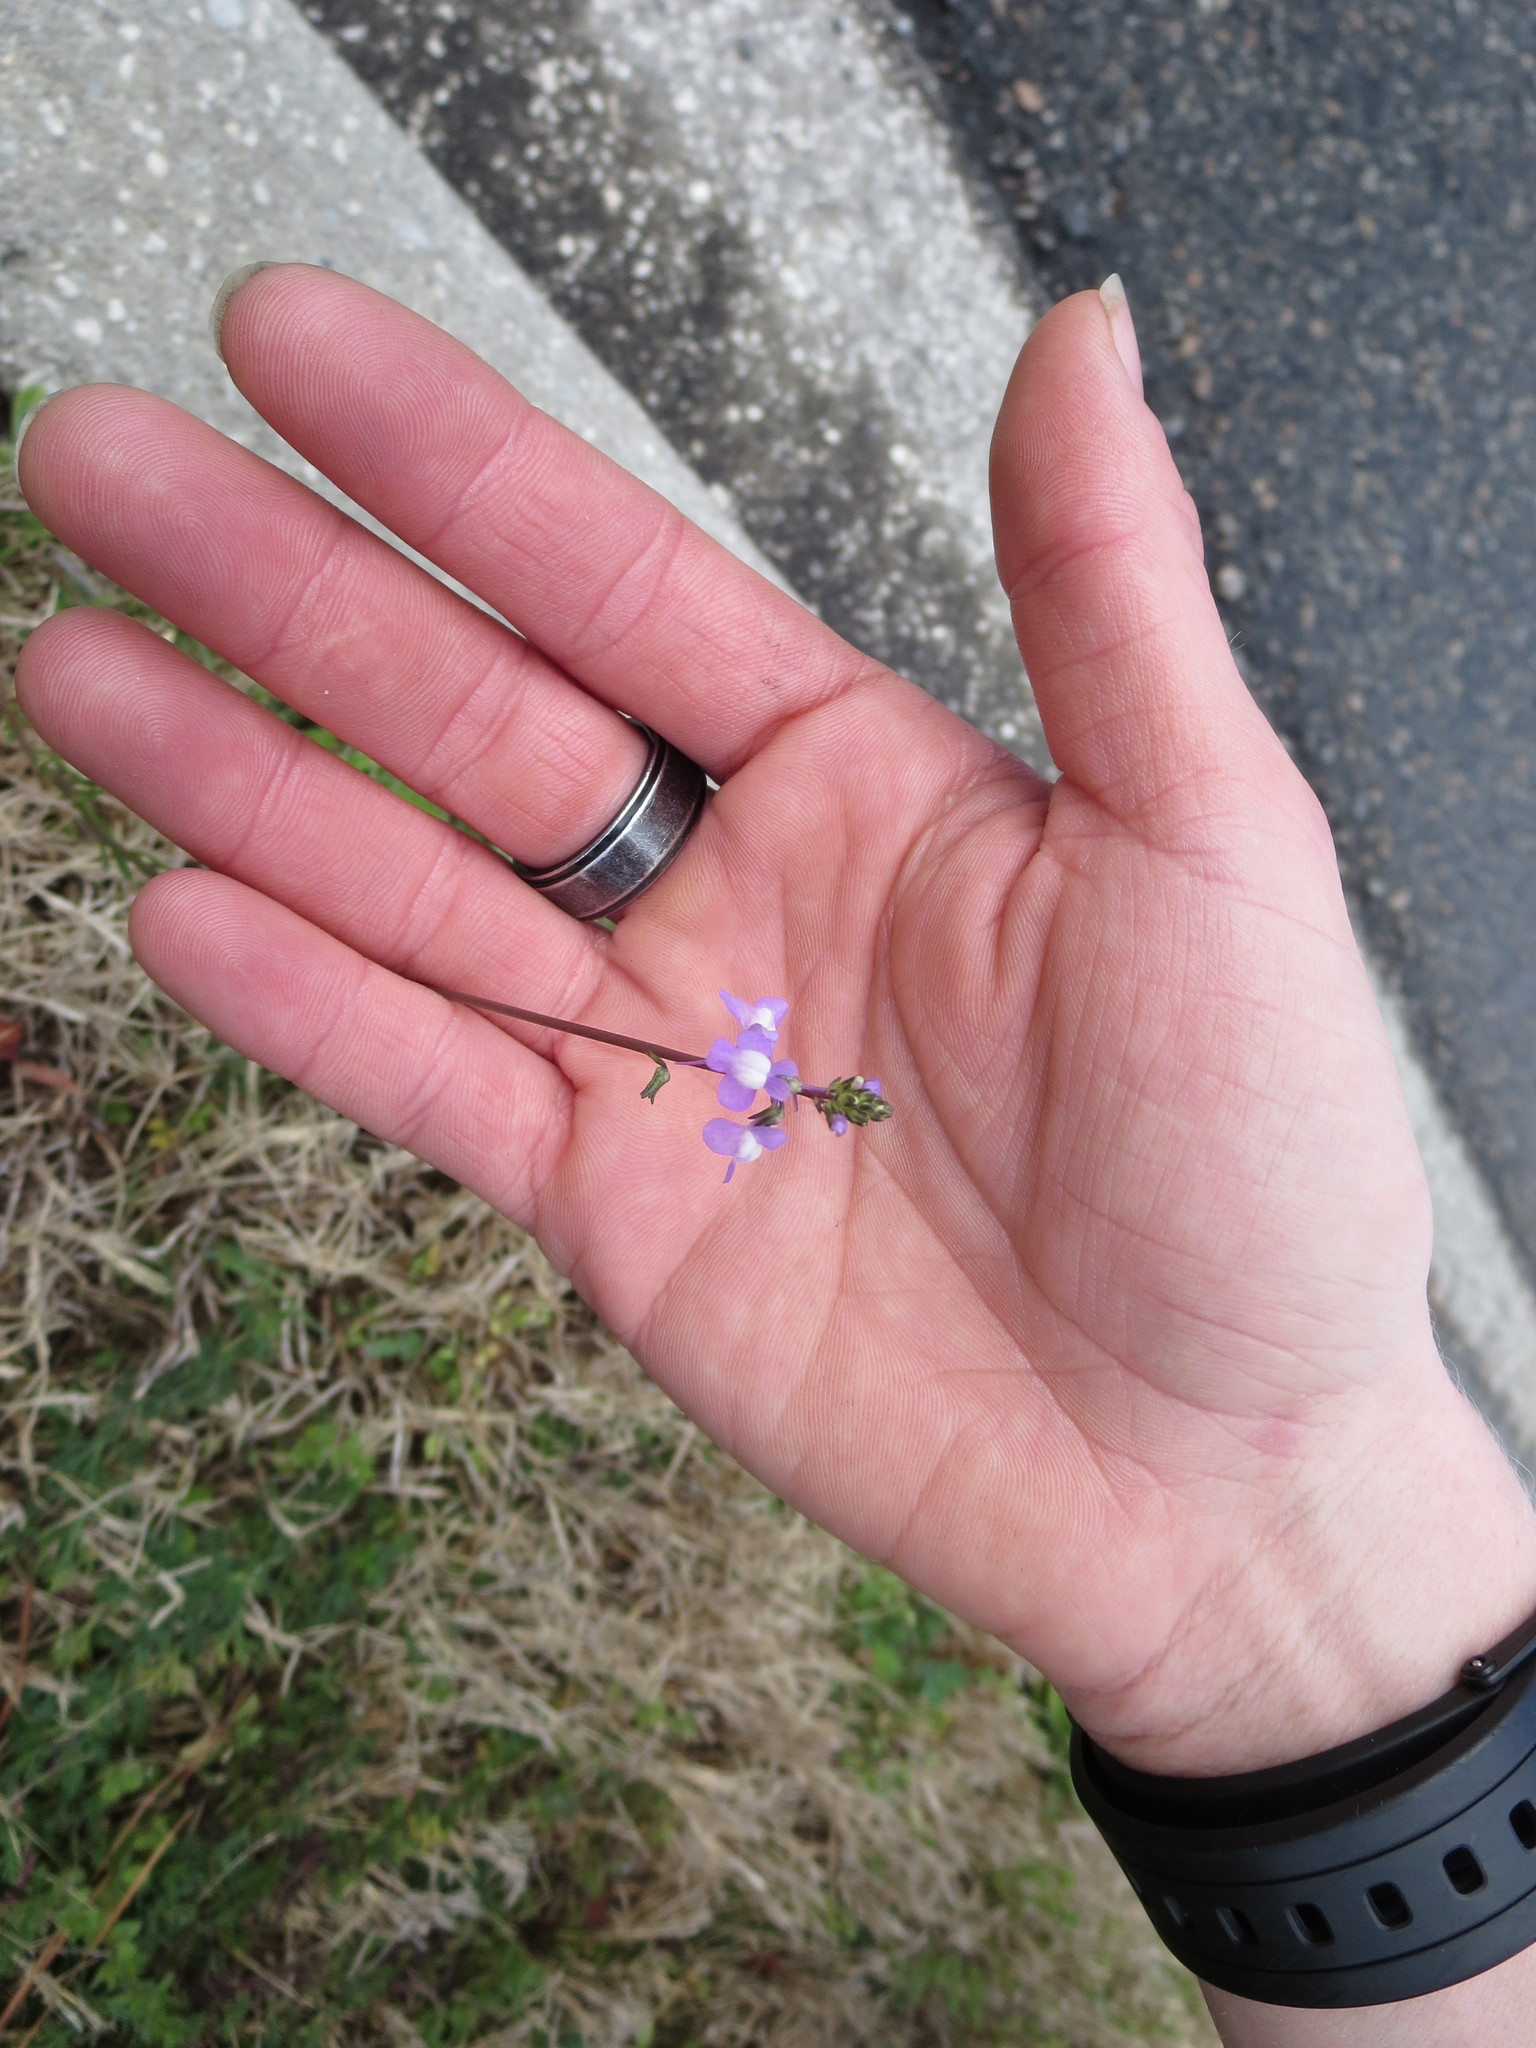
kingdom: Plantae
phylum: Tracheophyta
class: Magnoliopsida
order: Lamiales
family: Plantaginaceae
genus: Nuttallanthus
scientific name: Nuttallanthus canadensis
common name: Blue toadflax
